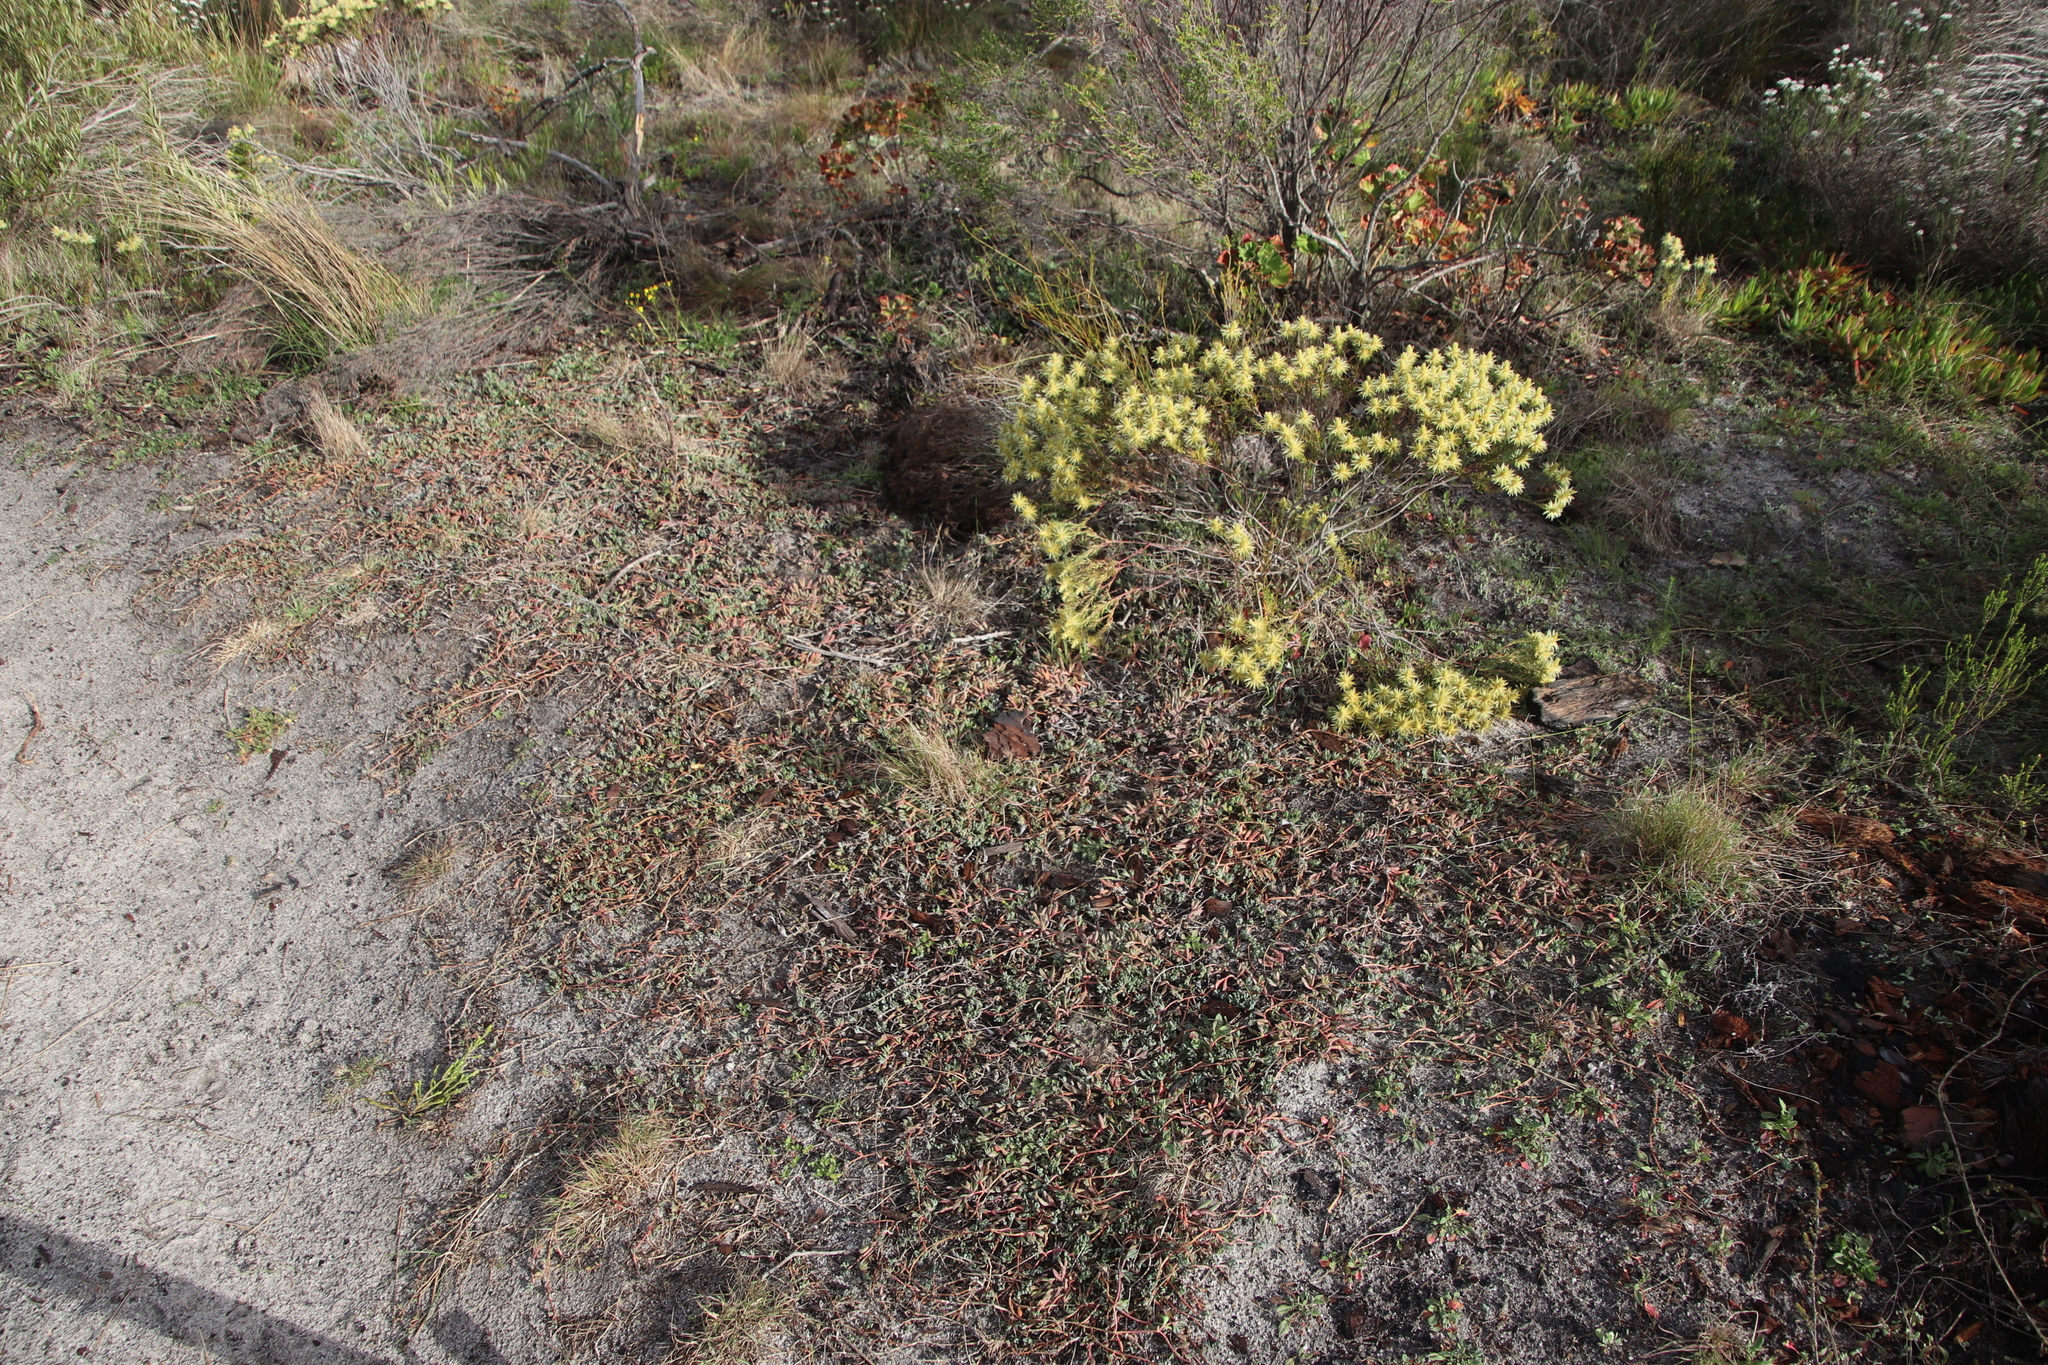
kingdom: Plantae
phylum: Tracheophyta
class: Magnoliopsida
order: Caryophyllales
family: Aizoaceae
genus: Lampranthus
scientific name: Lampranthus reptans
